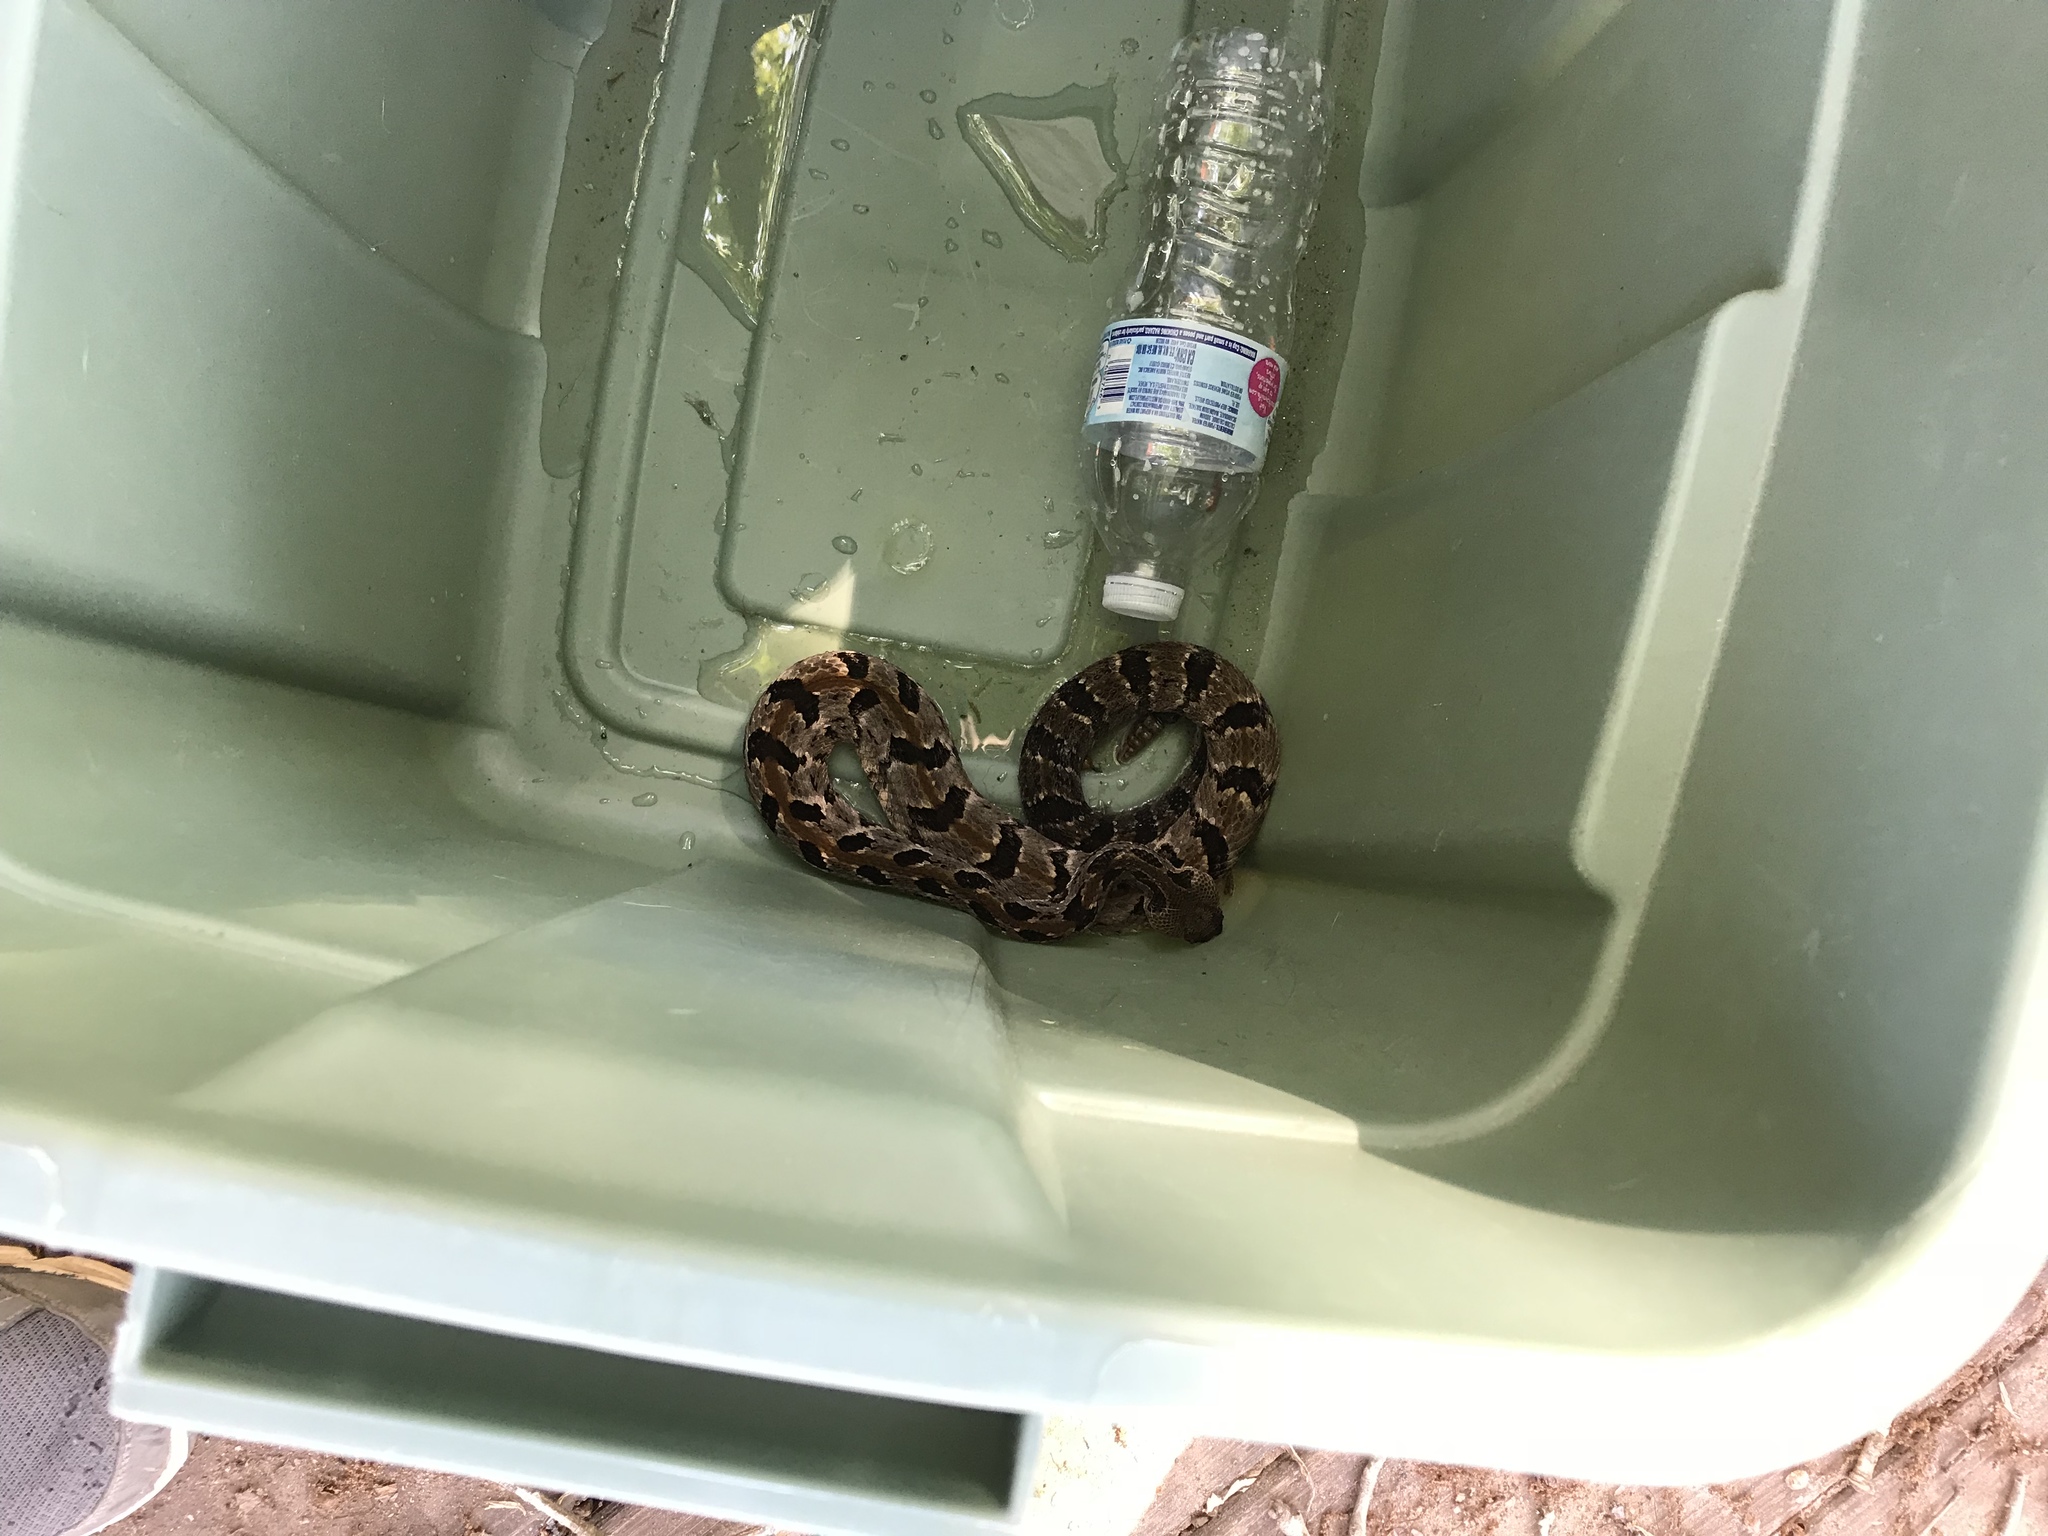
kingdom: Animalia
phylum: Chordata
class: Squamata
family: Viperidae
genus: Crotalus
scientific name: Crotalus horridus
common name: Timber rattlesnake
